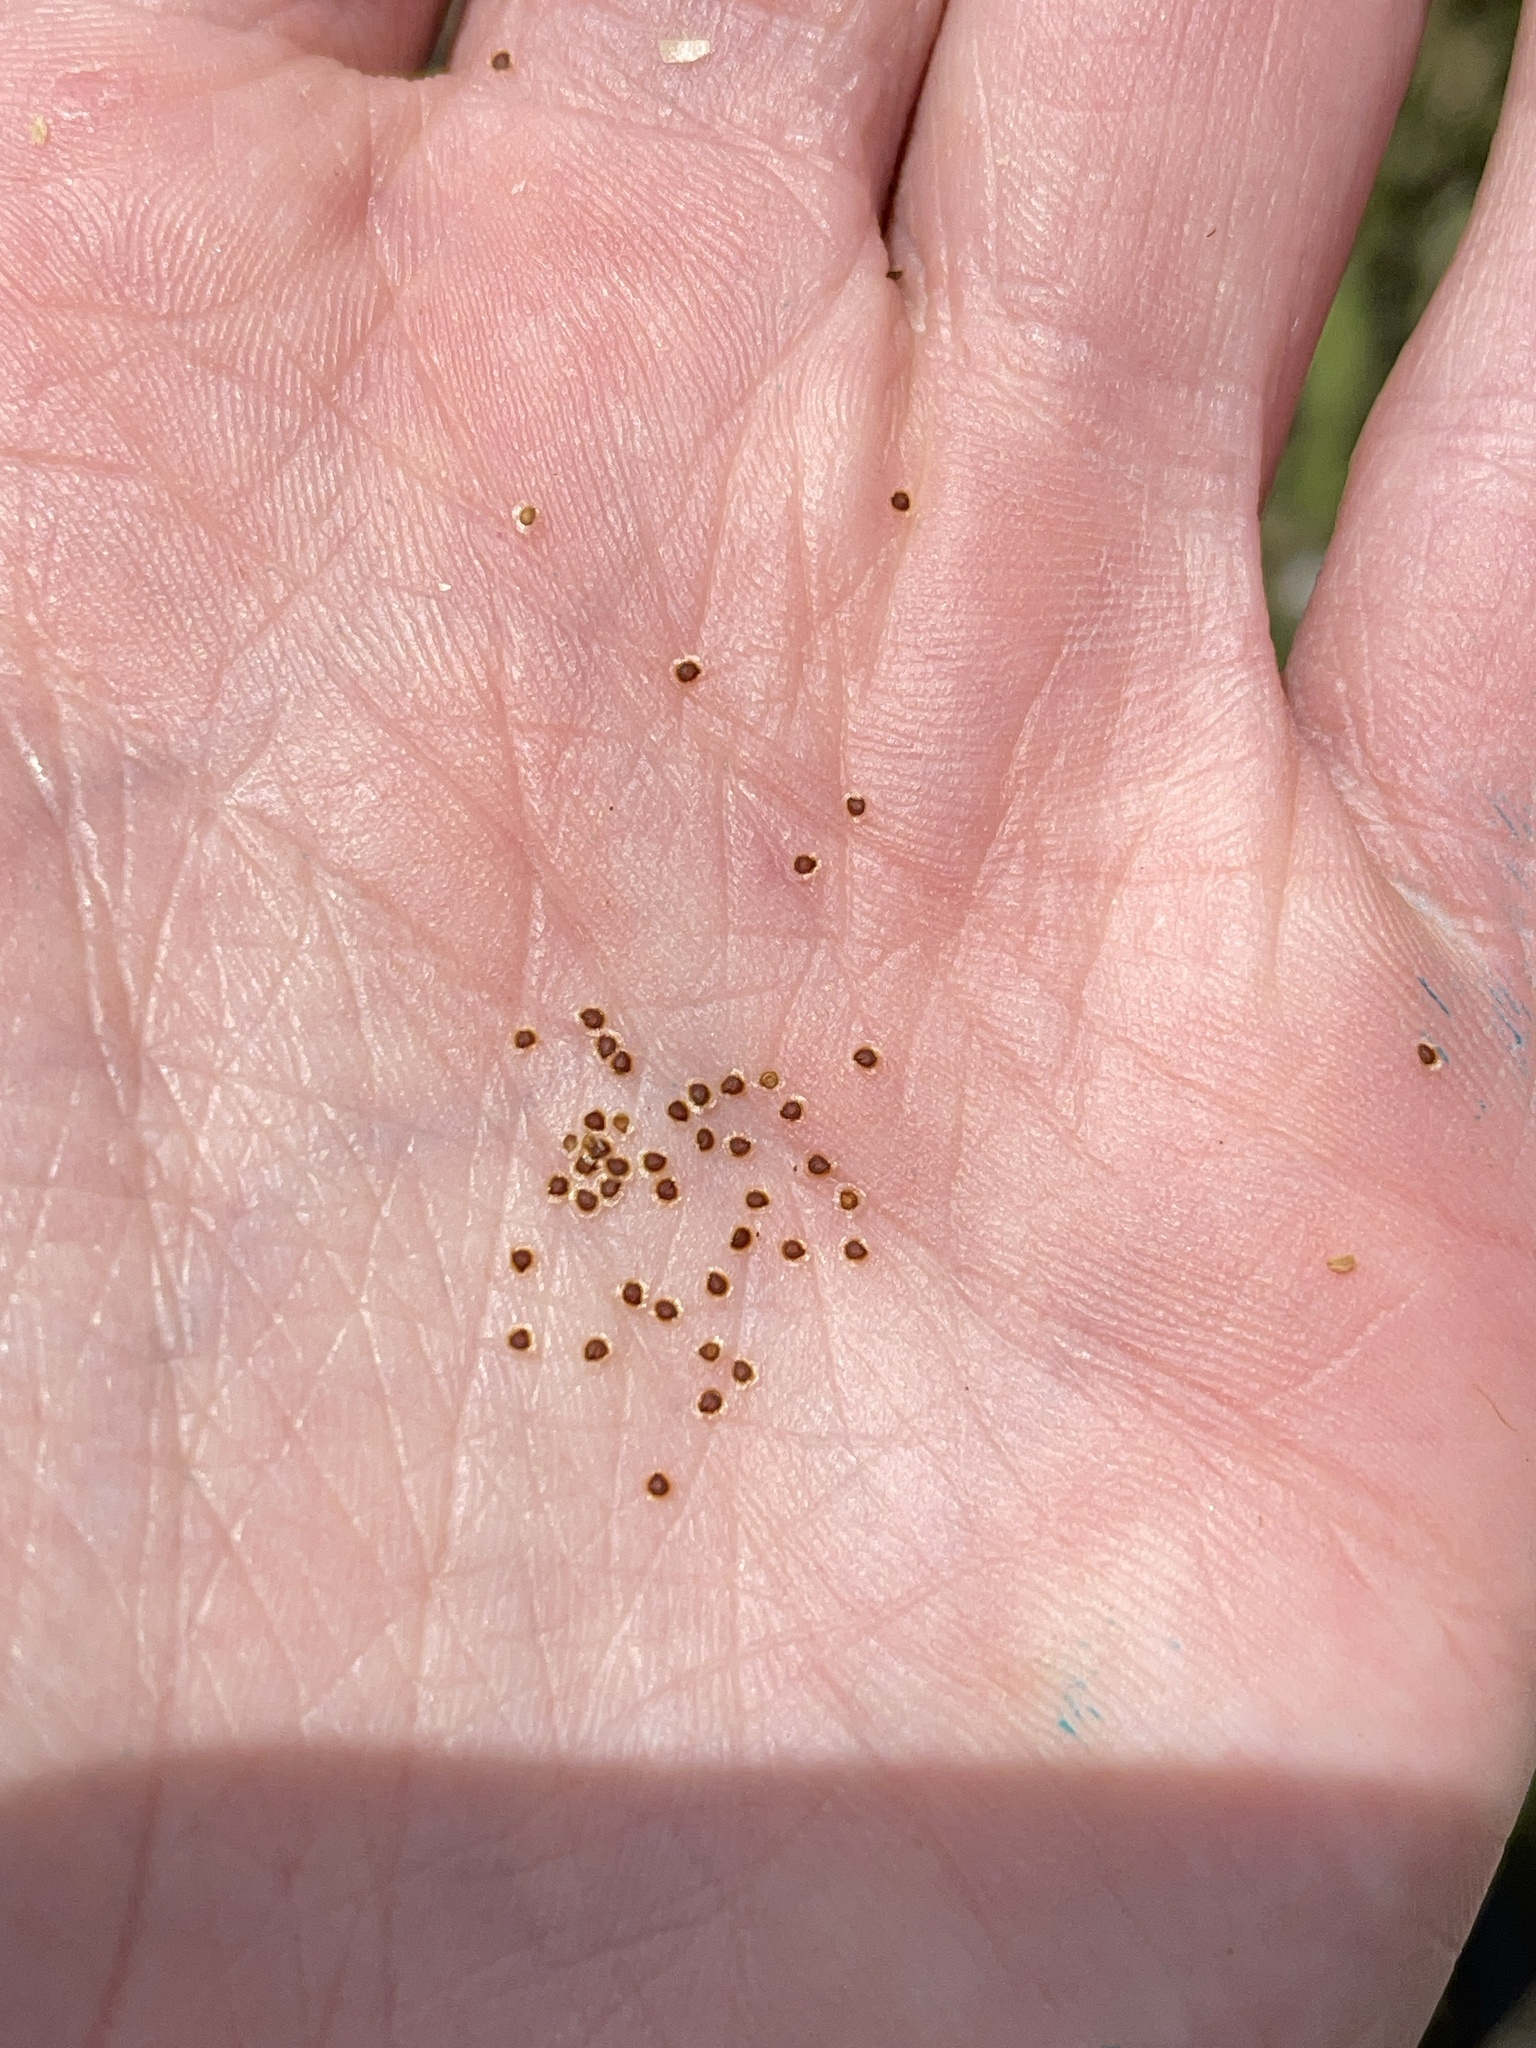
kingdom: Plantae
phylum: Tracheophyta
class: Magnoliopsida
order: Caryophyllales
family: Caryophyllaceae
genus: Spergularia
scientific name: Spergularia marina
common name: Lesser sea-spurrey
